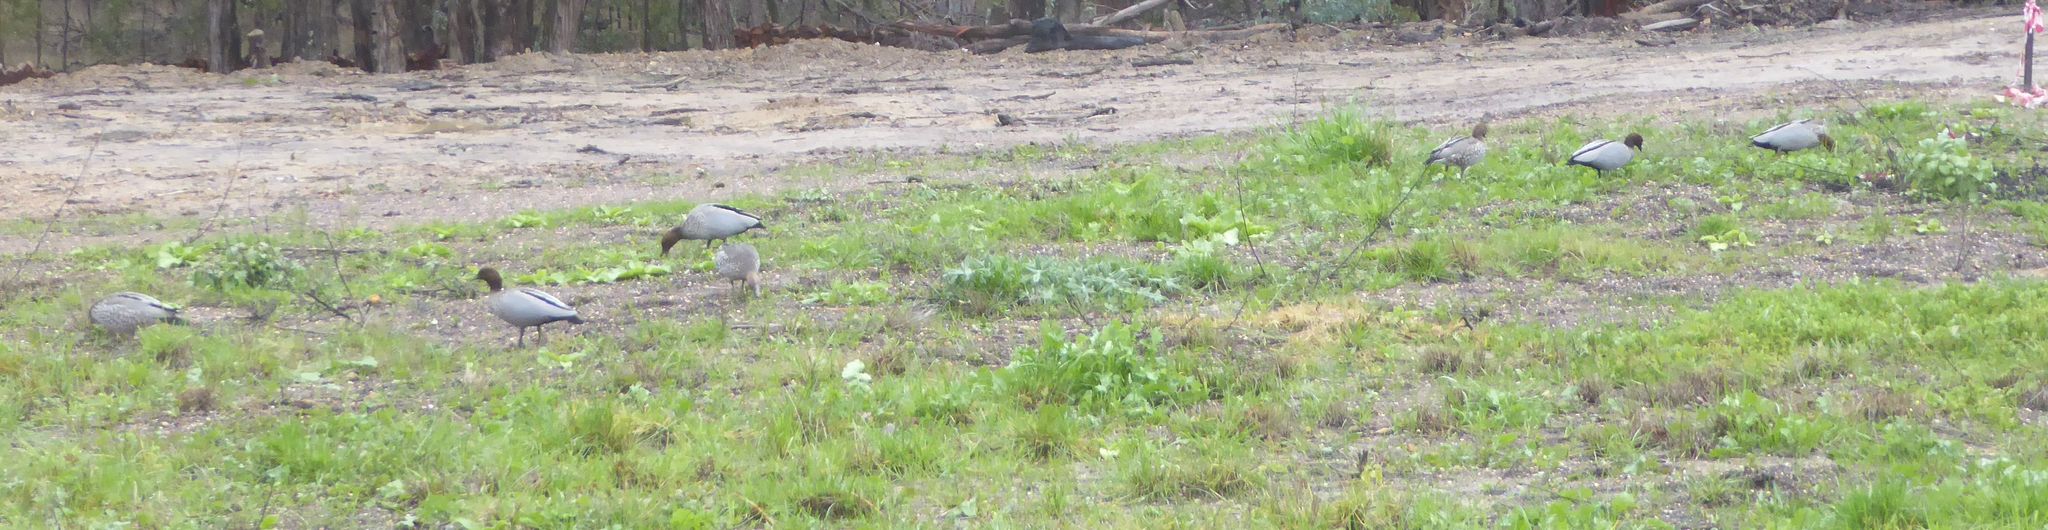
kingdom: Animalia
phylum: Chordata
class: Aves
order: Anseriformes
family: Anatidae
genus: Chenonetta
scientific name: Chenonetta jubata
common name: Maned duck
